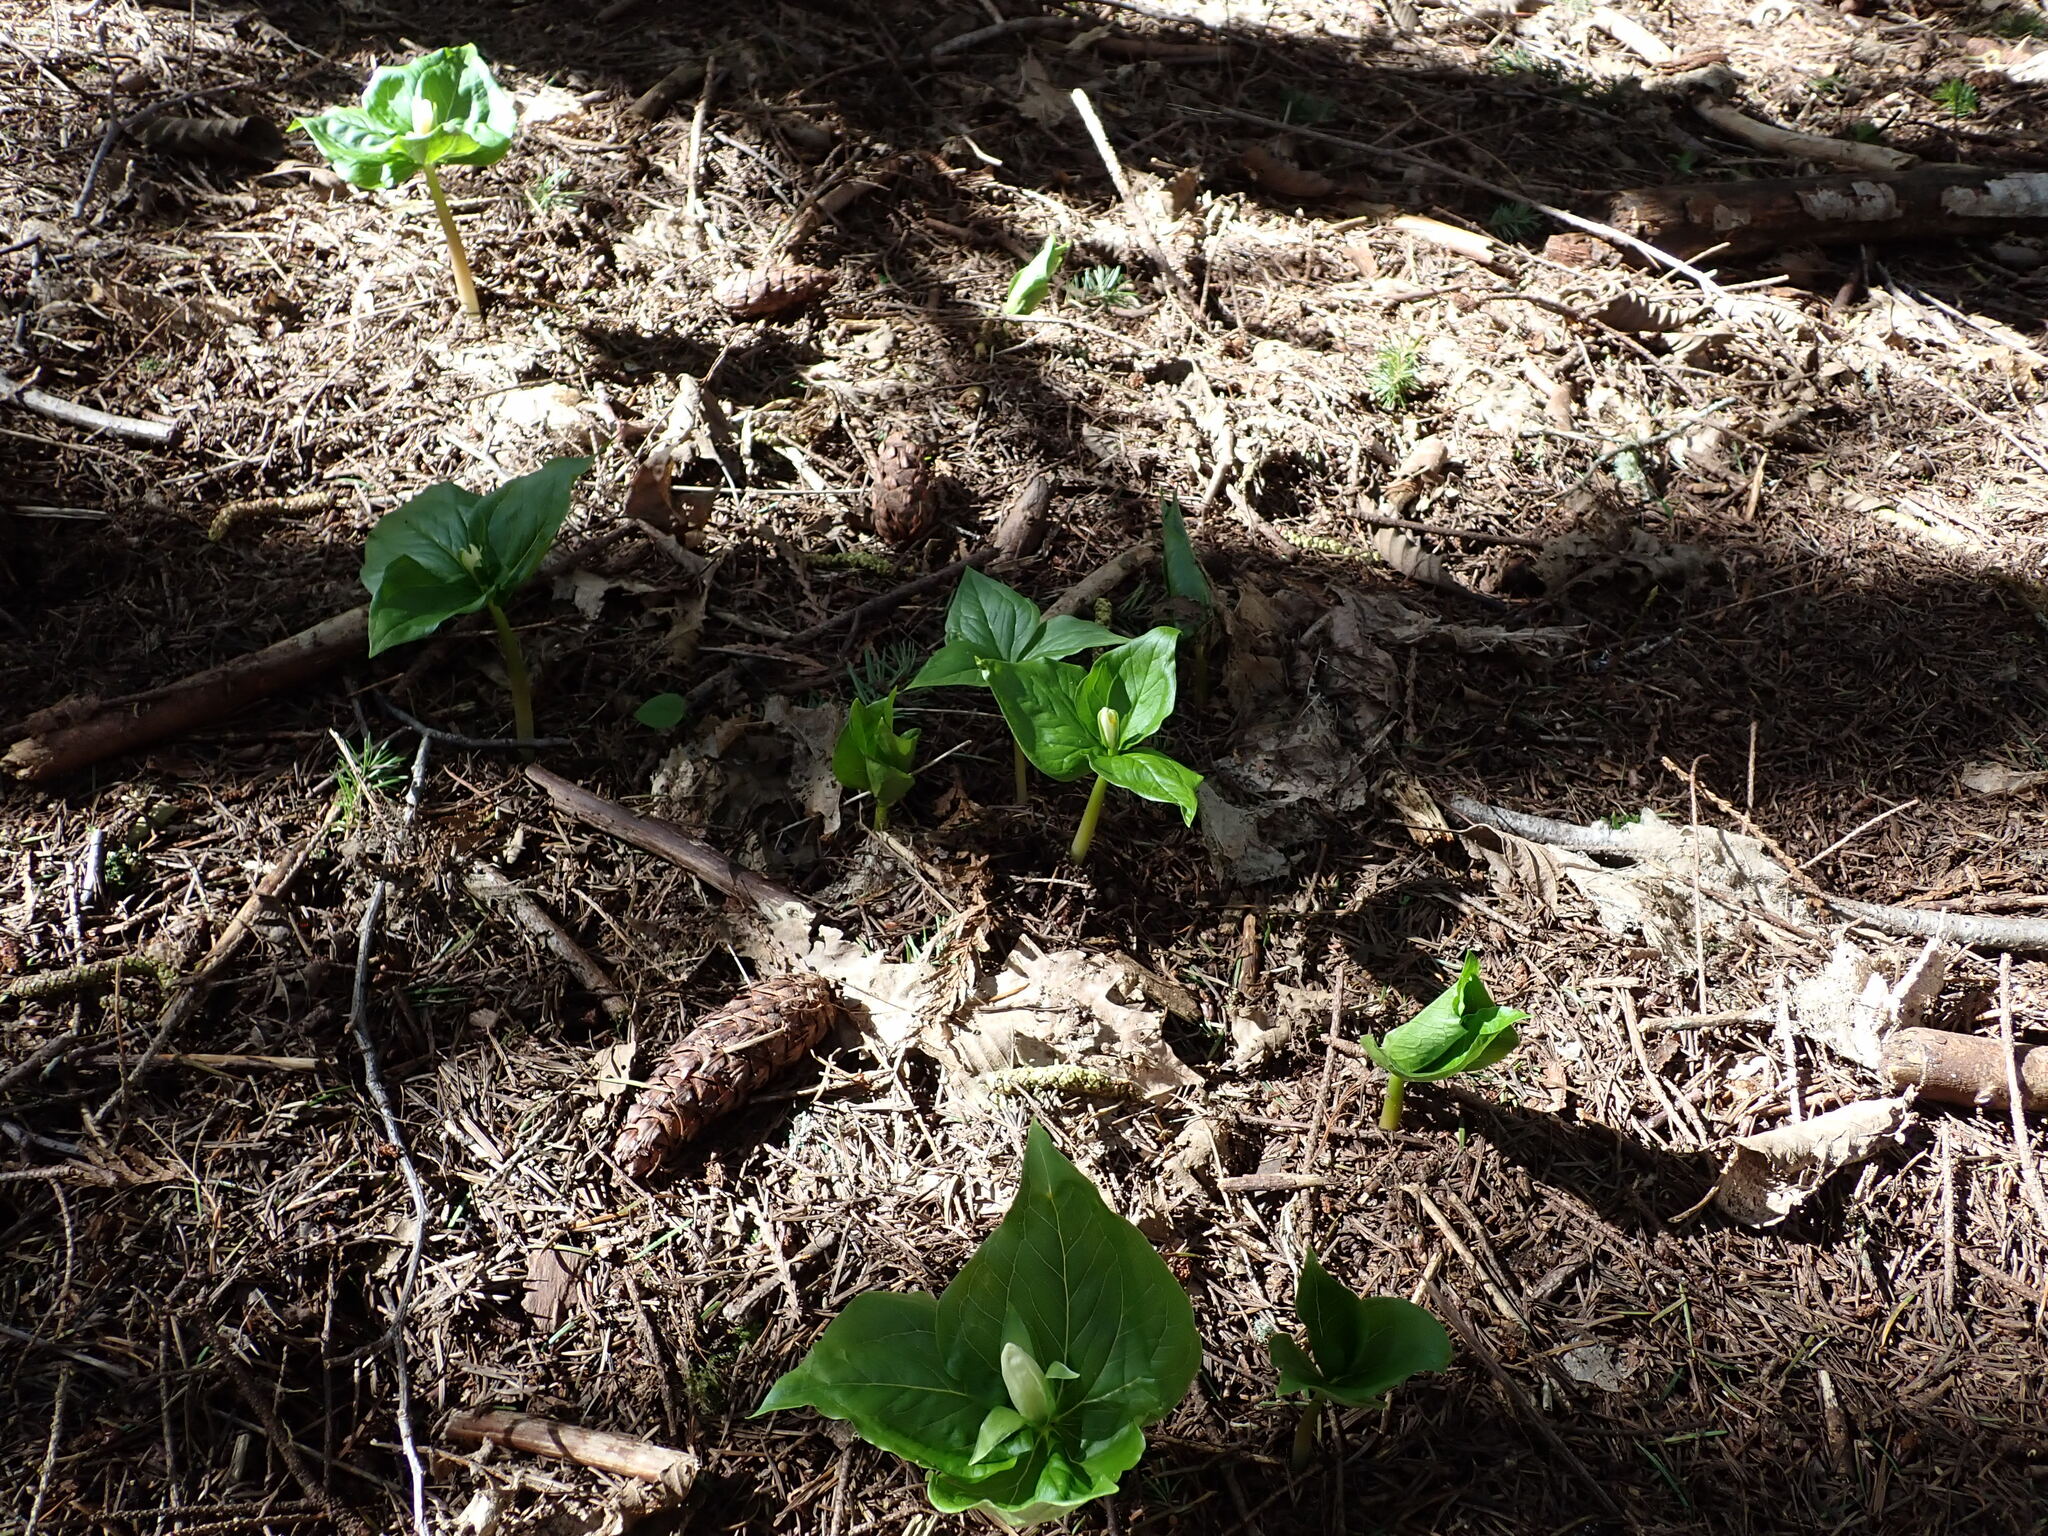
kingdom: Plantae
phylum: Tracheophyta
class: Liliopsida
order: Liliales
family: Melanthiaceae
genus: Trillium
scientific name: Trillium ovatum
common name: Pacific trillium
